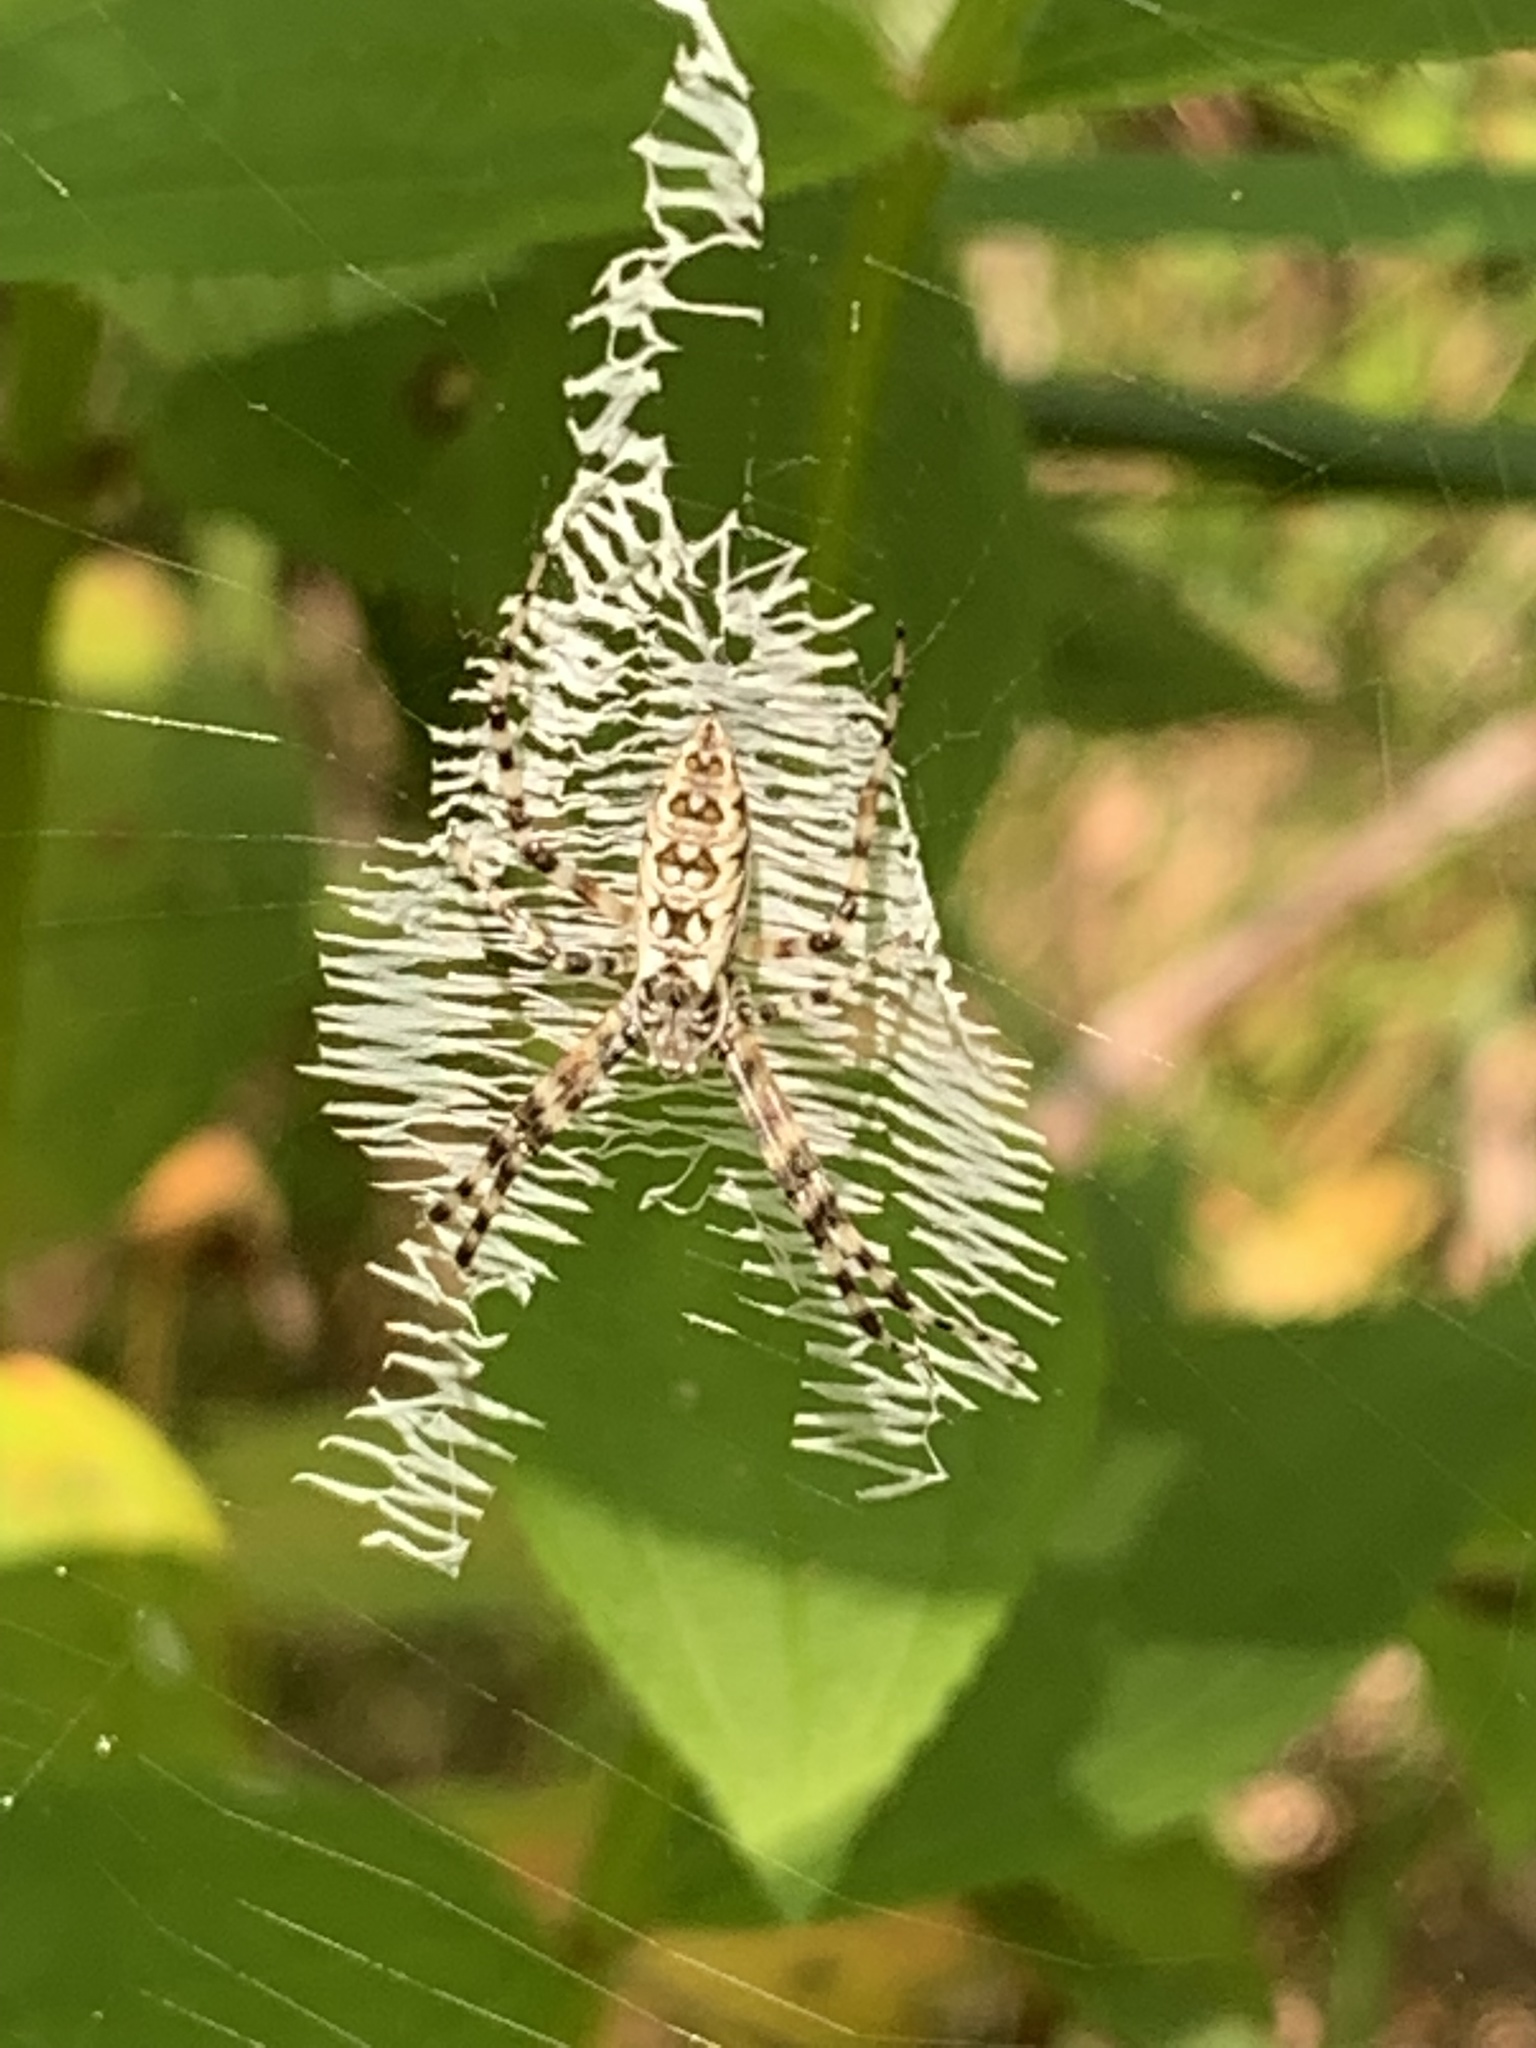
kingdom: Animalia
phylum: Arthropoda
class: Arachnida
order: Araneae
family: Araneidae
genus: Argiope
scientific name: Argiope aurantia
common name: Orb weavers
